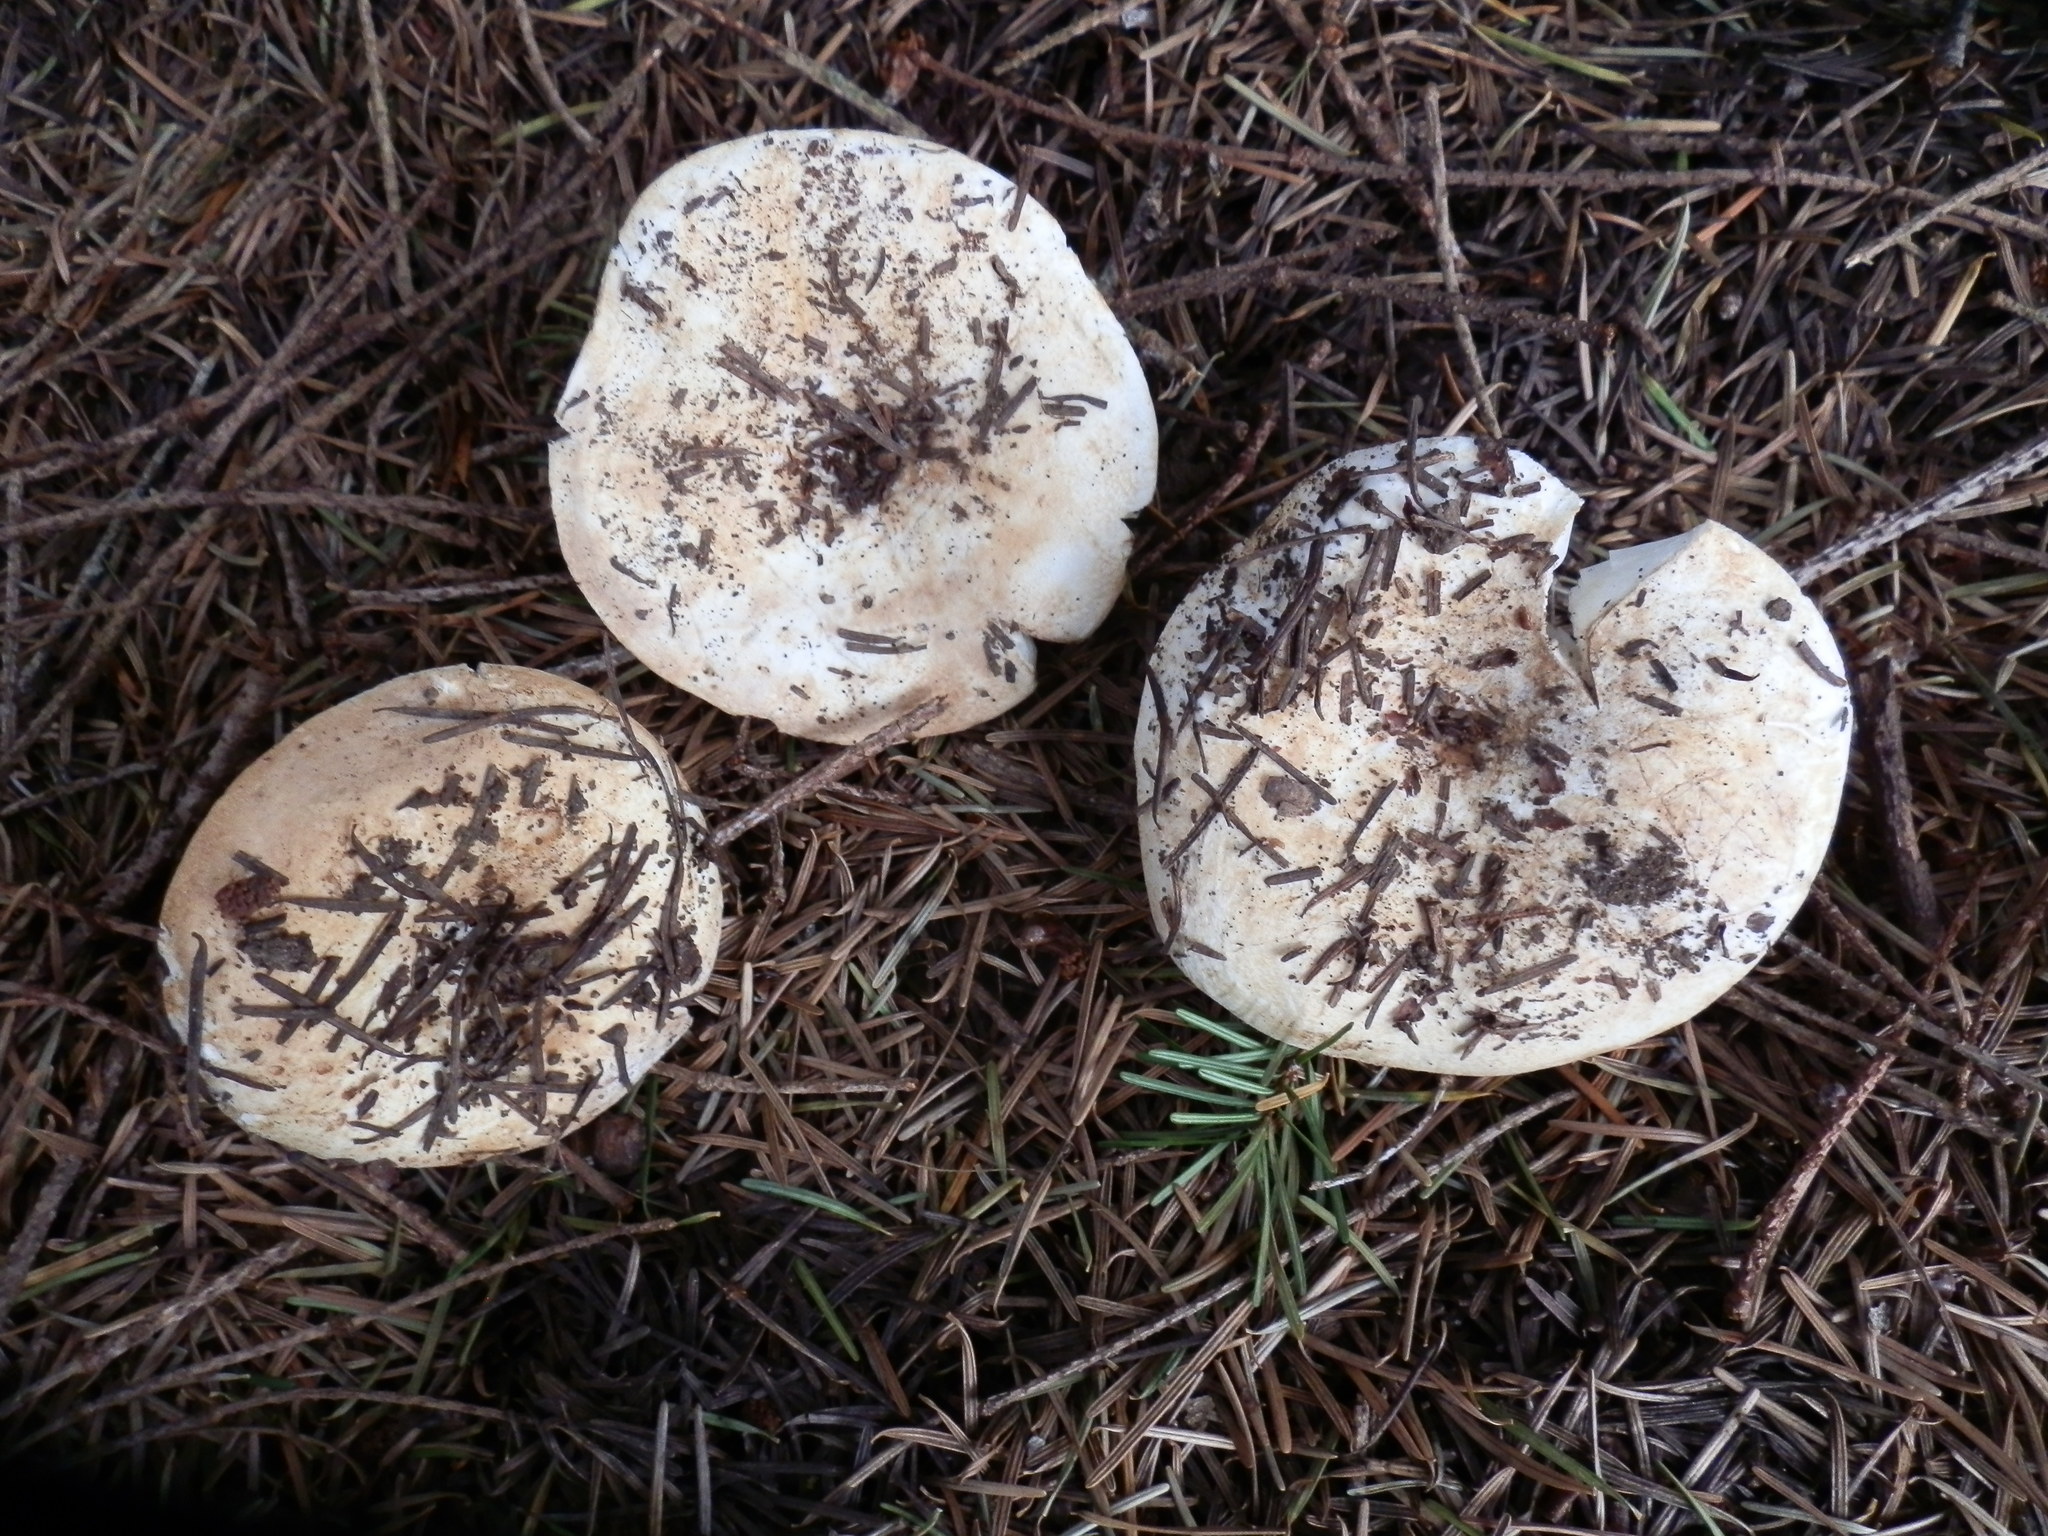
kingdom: Fungi
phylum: Basidiomycota
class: Agaricomycetes
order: Russulales
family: Russulaceae
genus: Russula
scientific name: Russula brevipes
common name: Short-stemmed russula
